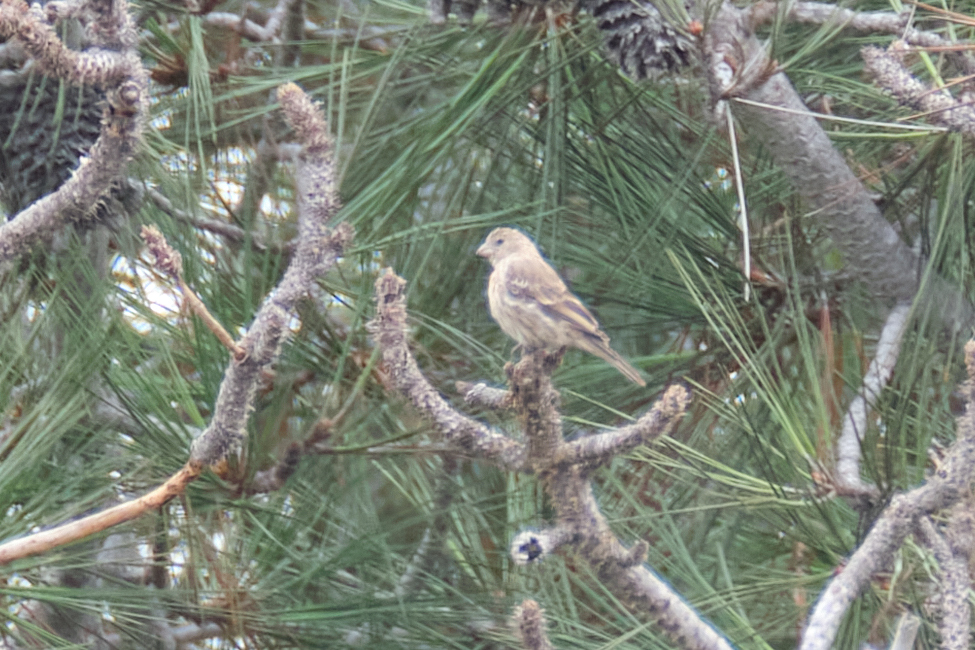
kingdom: Animalia
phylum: Chordata
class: Aves
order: Passeriformes
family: Fringillidae
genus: Haemorhous
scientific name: Haemorhous mexicanus
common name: House finch
